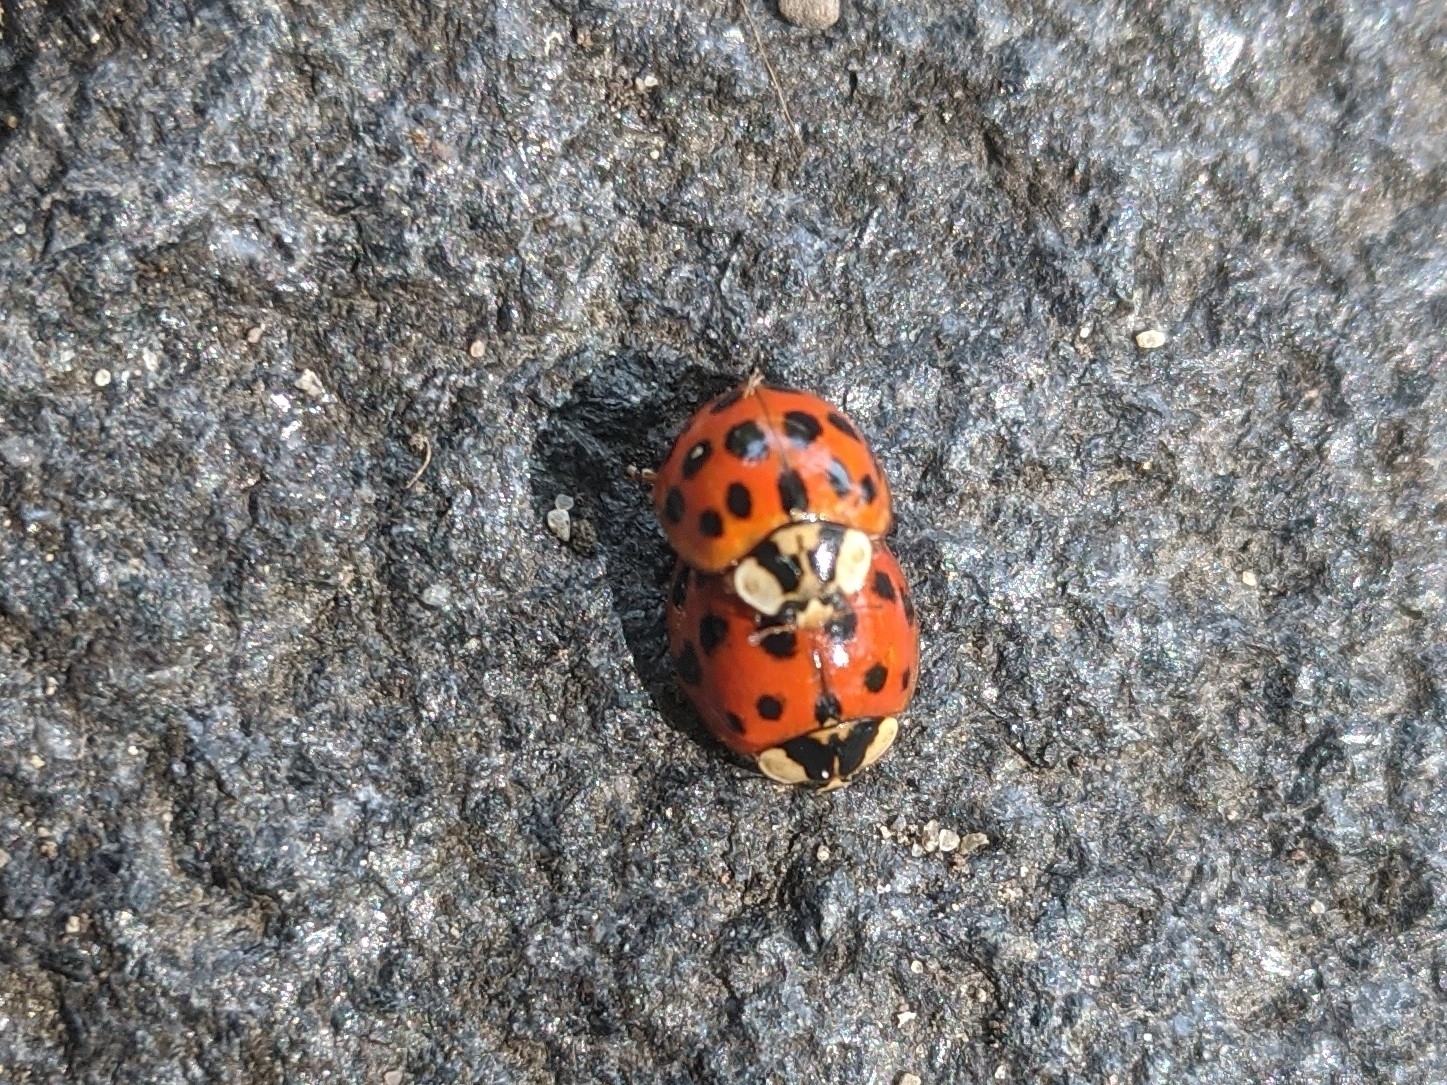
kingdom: Animalia
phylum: Arthropoda
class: Insecta
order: Coleoptera
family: Coccinellidae
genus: Harmonia
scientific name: Harmonia axyridis
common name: Harlequin ladybird
